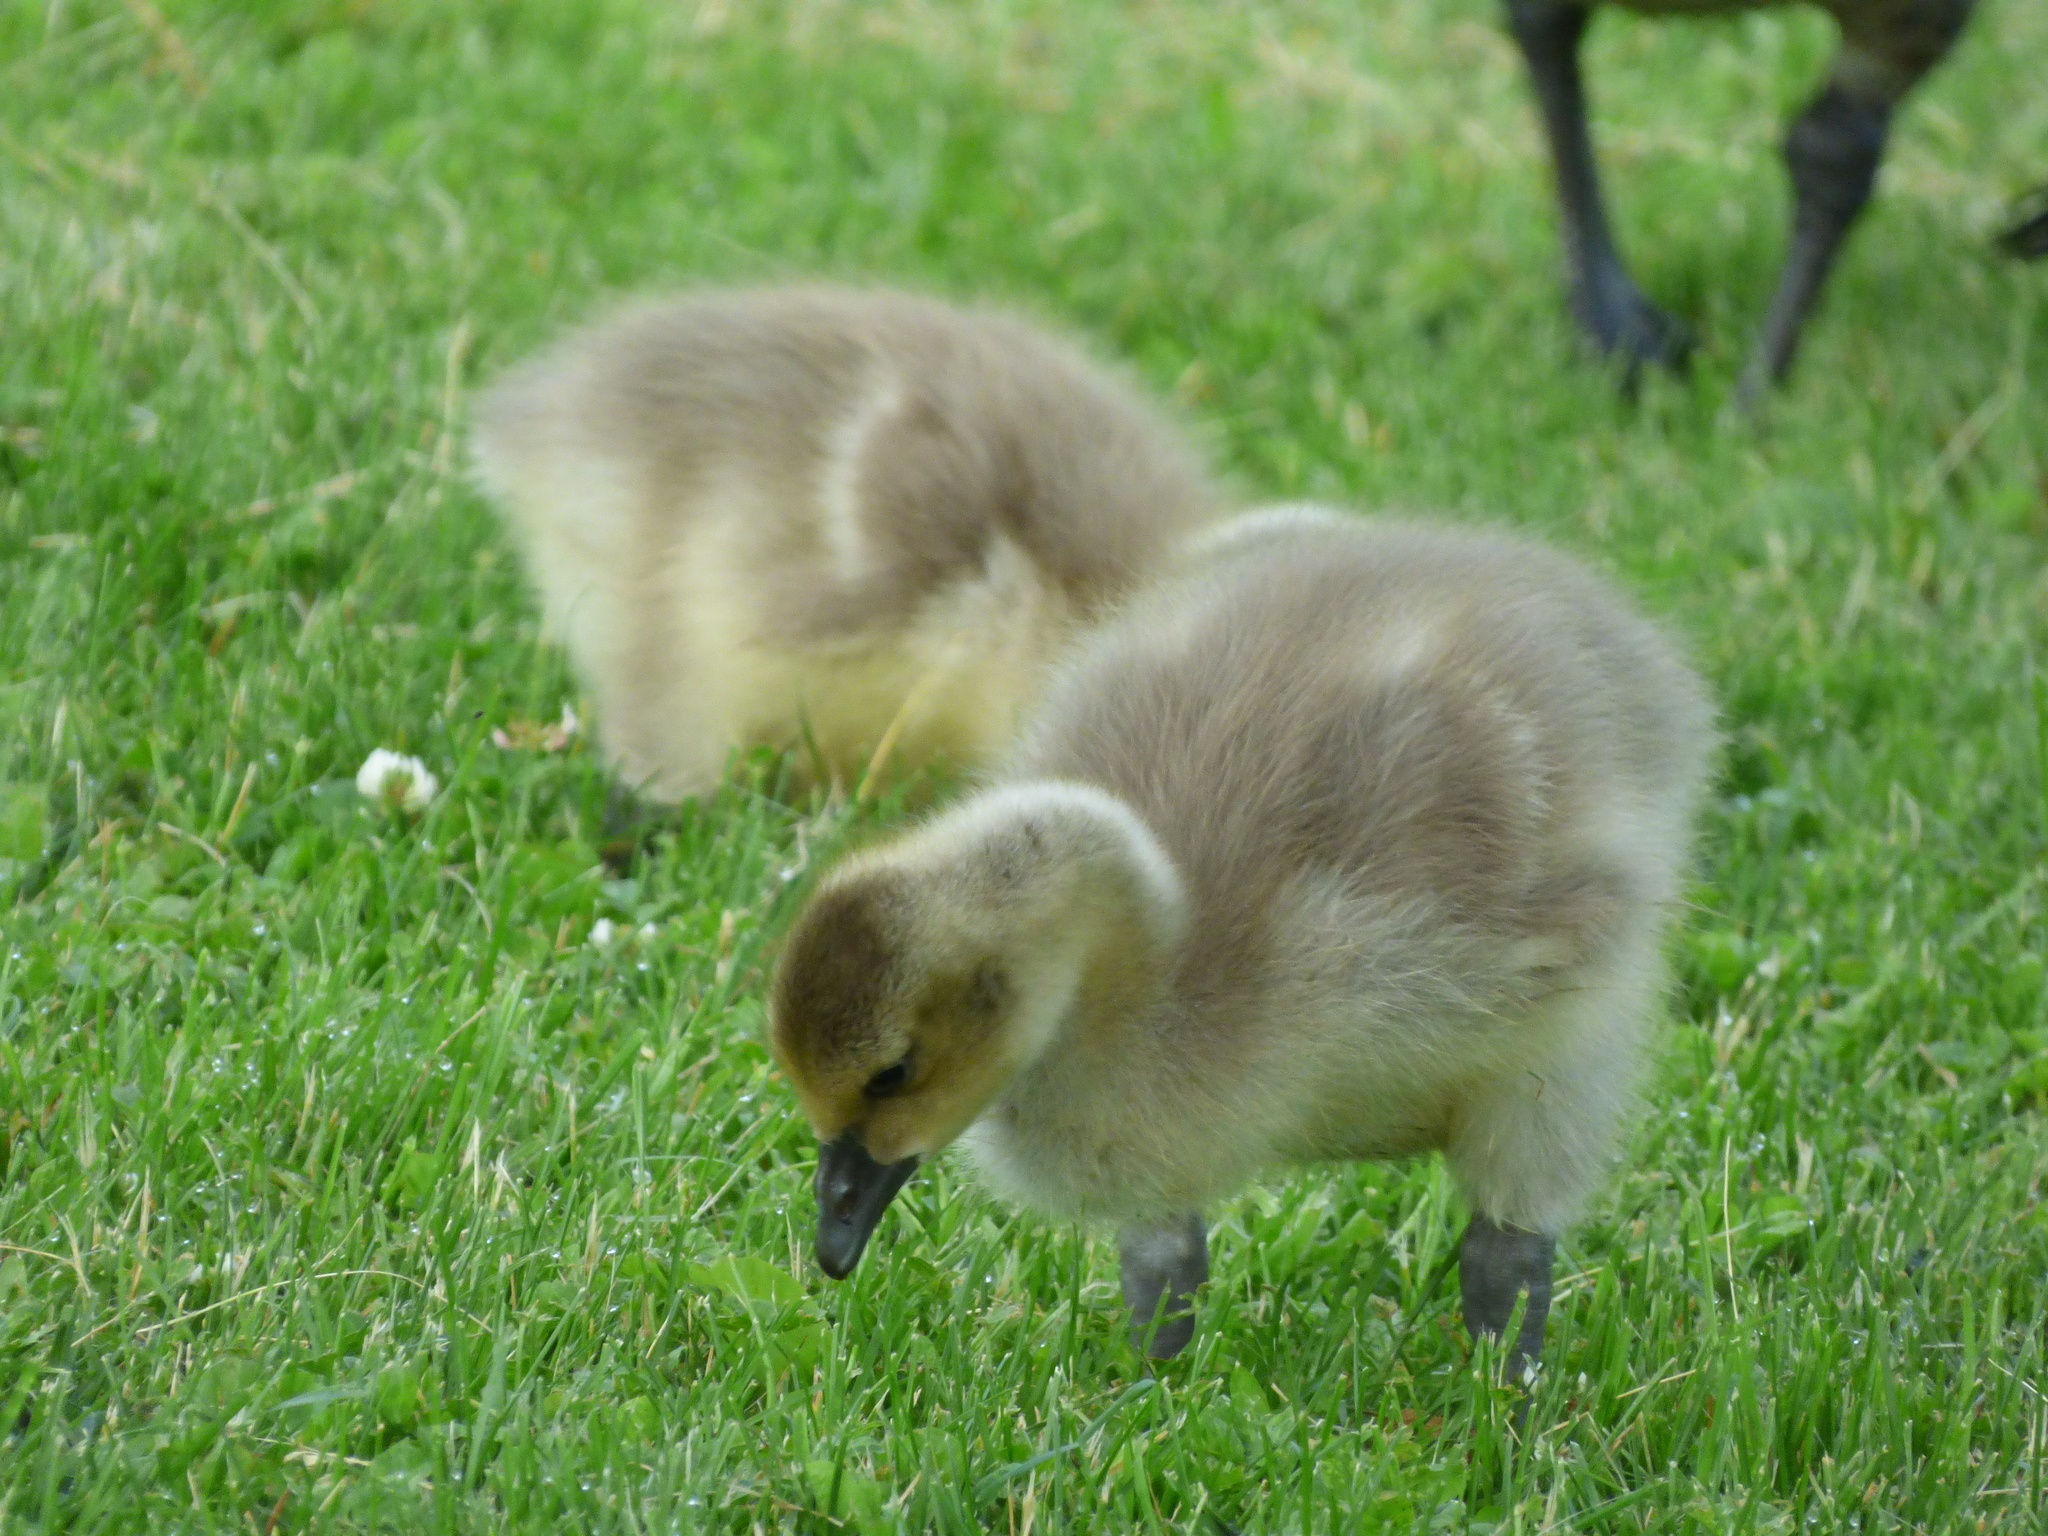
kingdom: Animalia
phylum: Chordata
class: Aves
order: Anseriformes
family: Anatidae
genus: Branta
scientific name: Branta canadensis
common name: Canada goose
